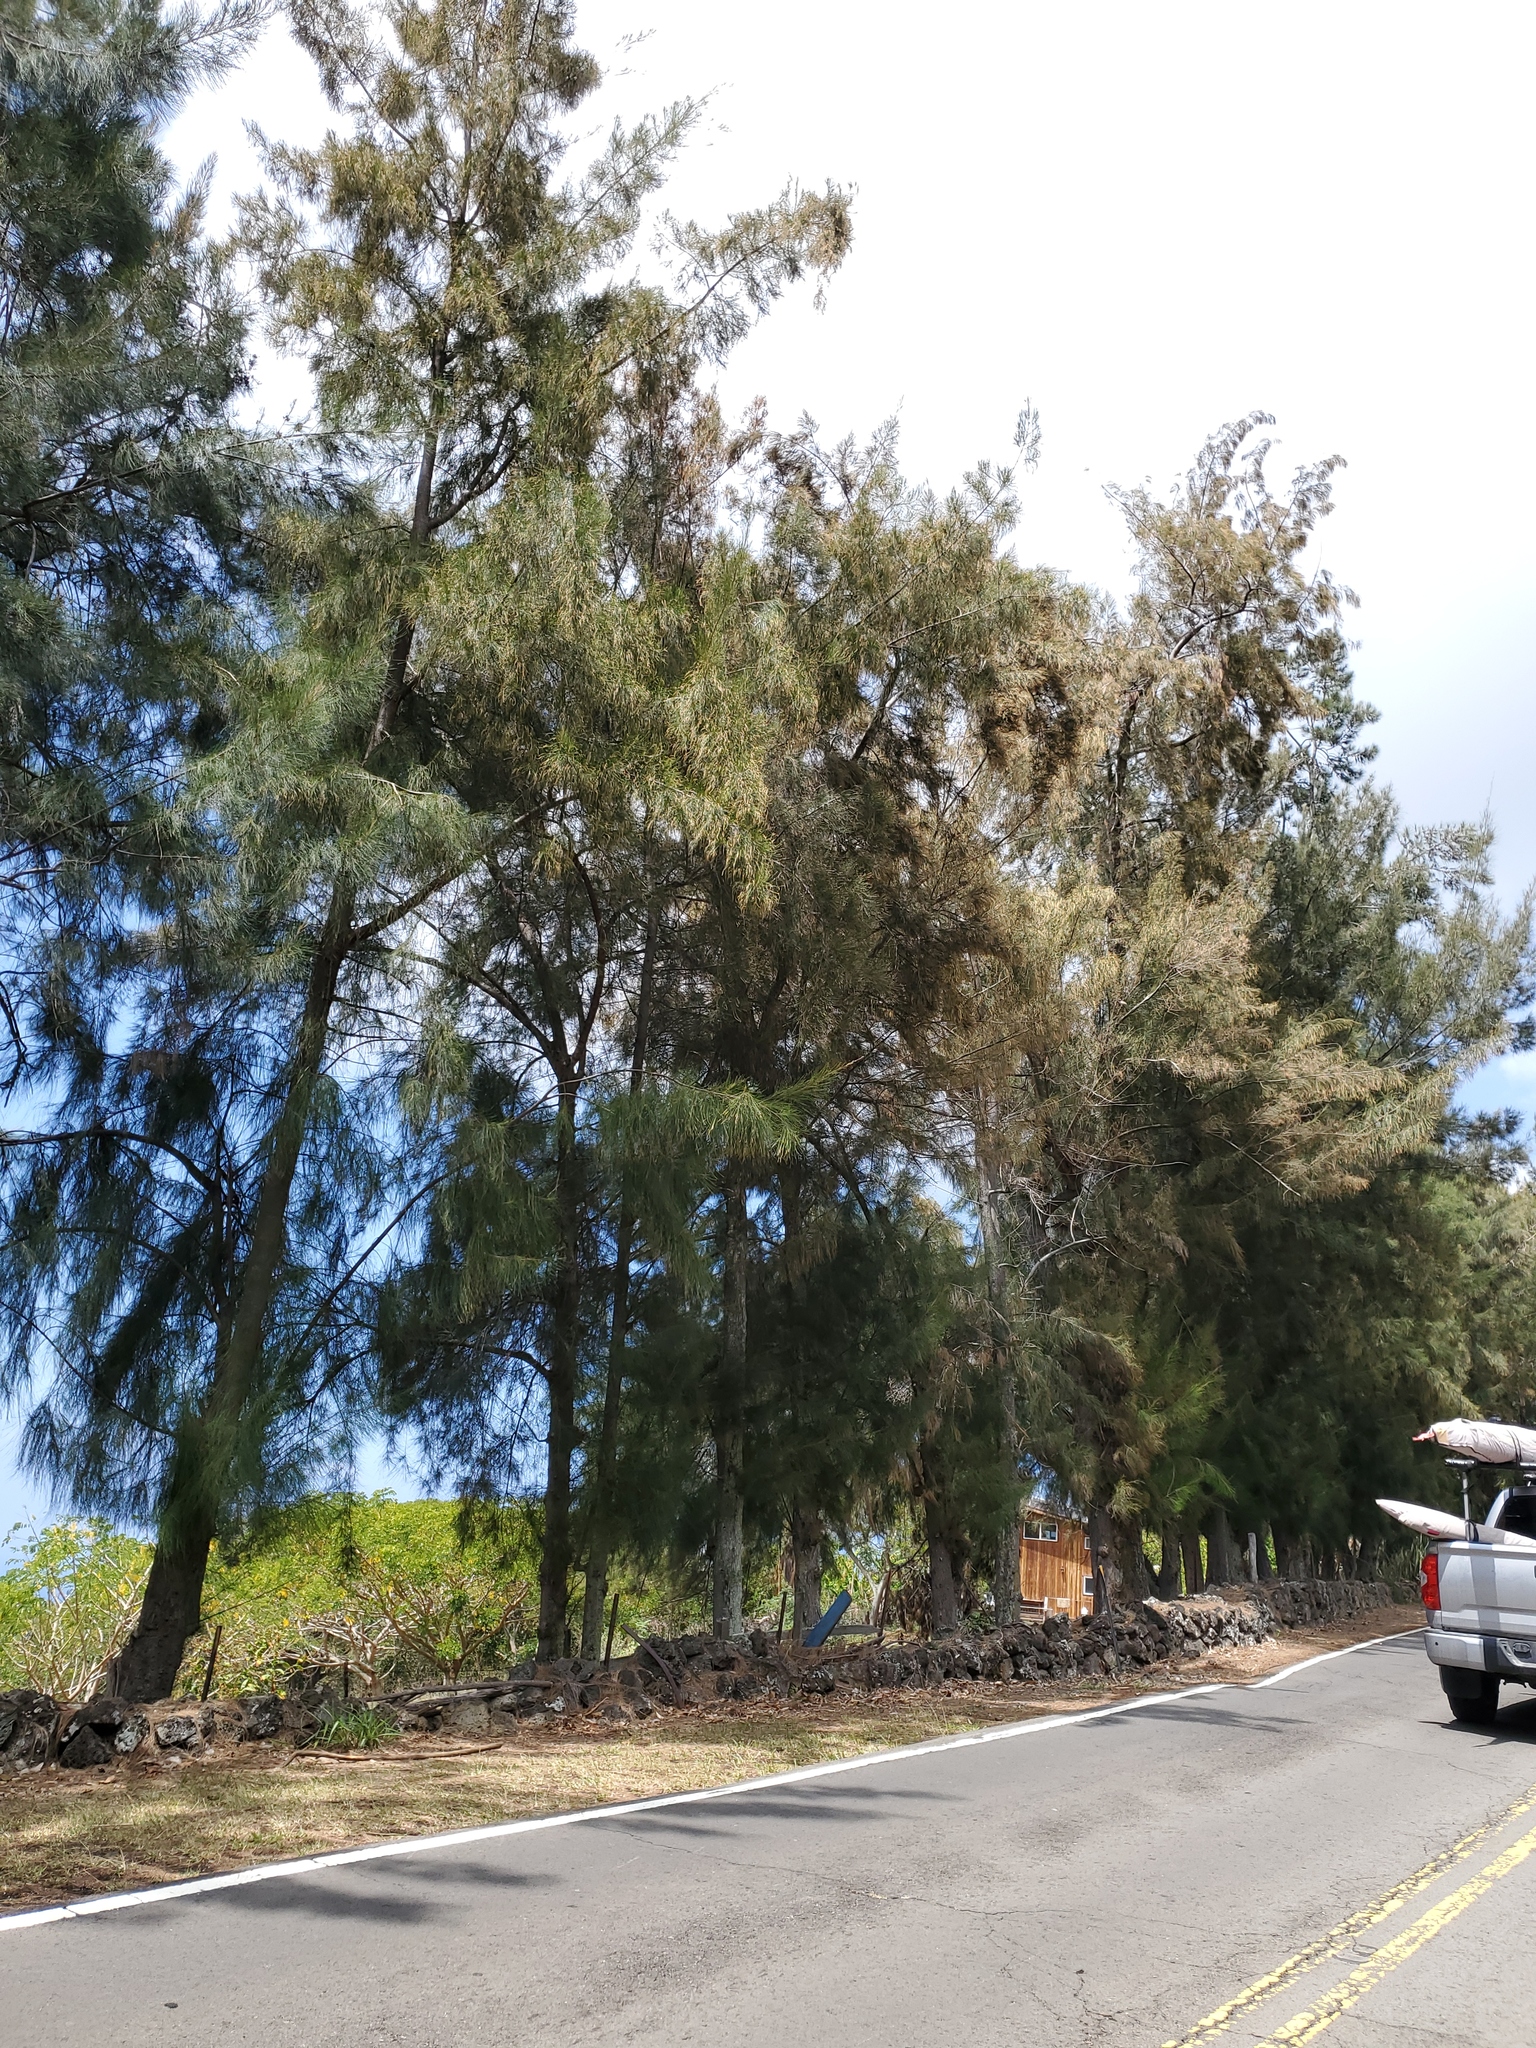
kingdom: Plantae
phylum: Tracheophyta
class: Magnoliopsida
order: Fagales
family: Casuarinaceae
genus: Casuarina
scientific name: Casuarina equisetifolia
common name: Beach sheoak
